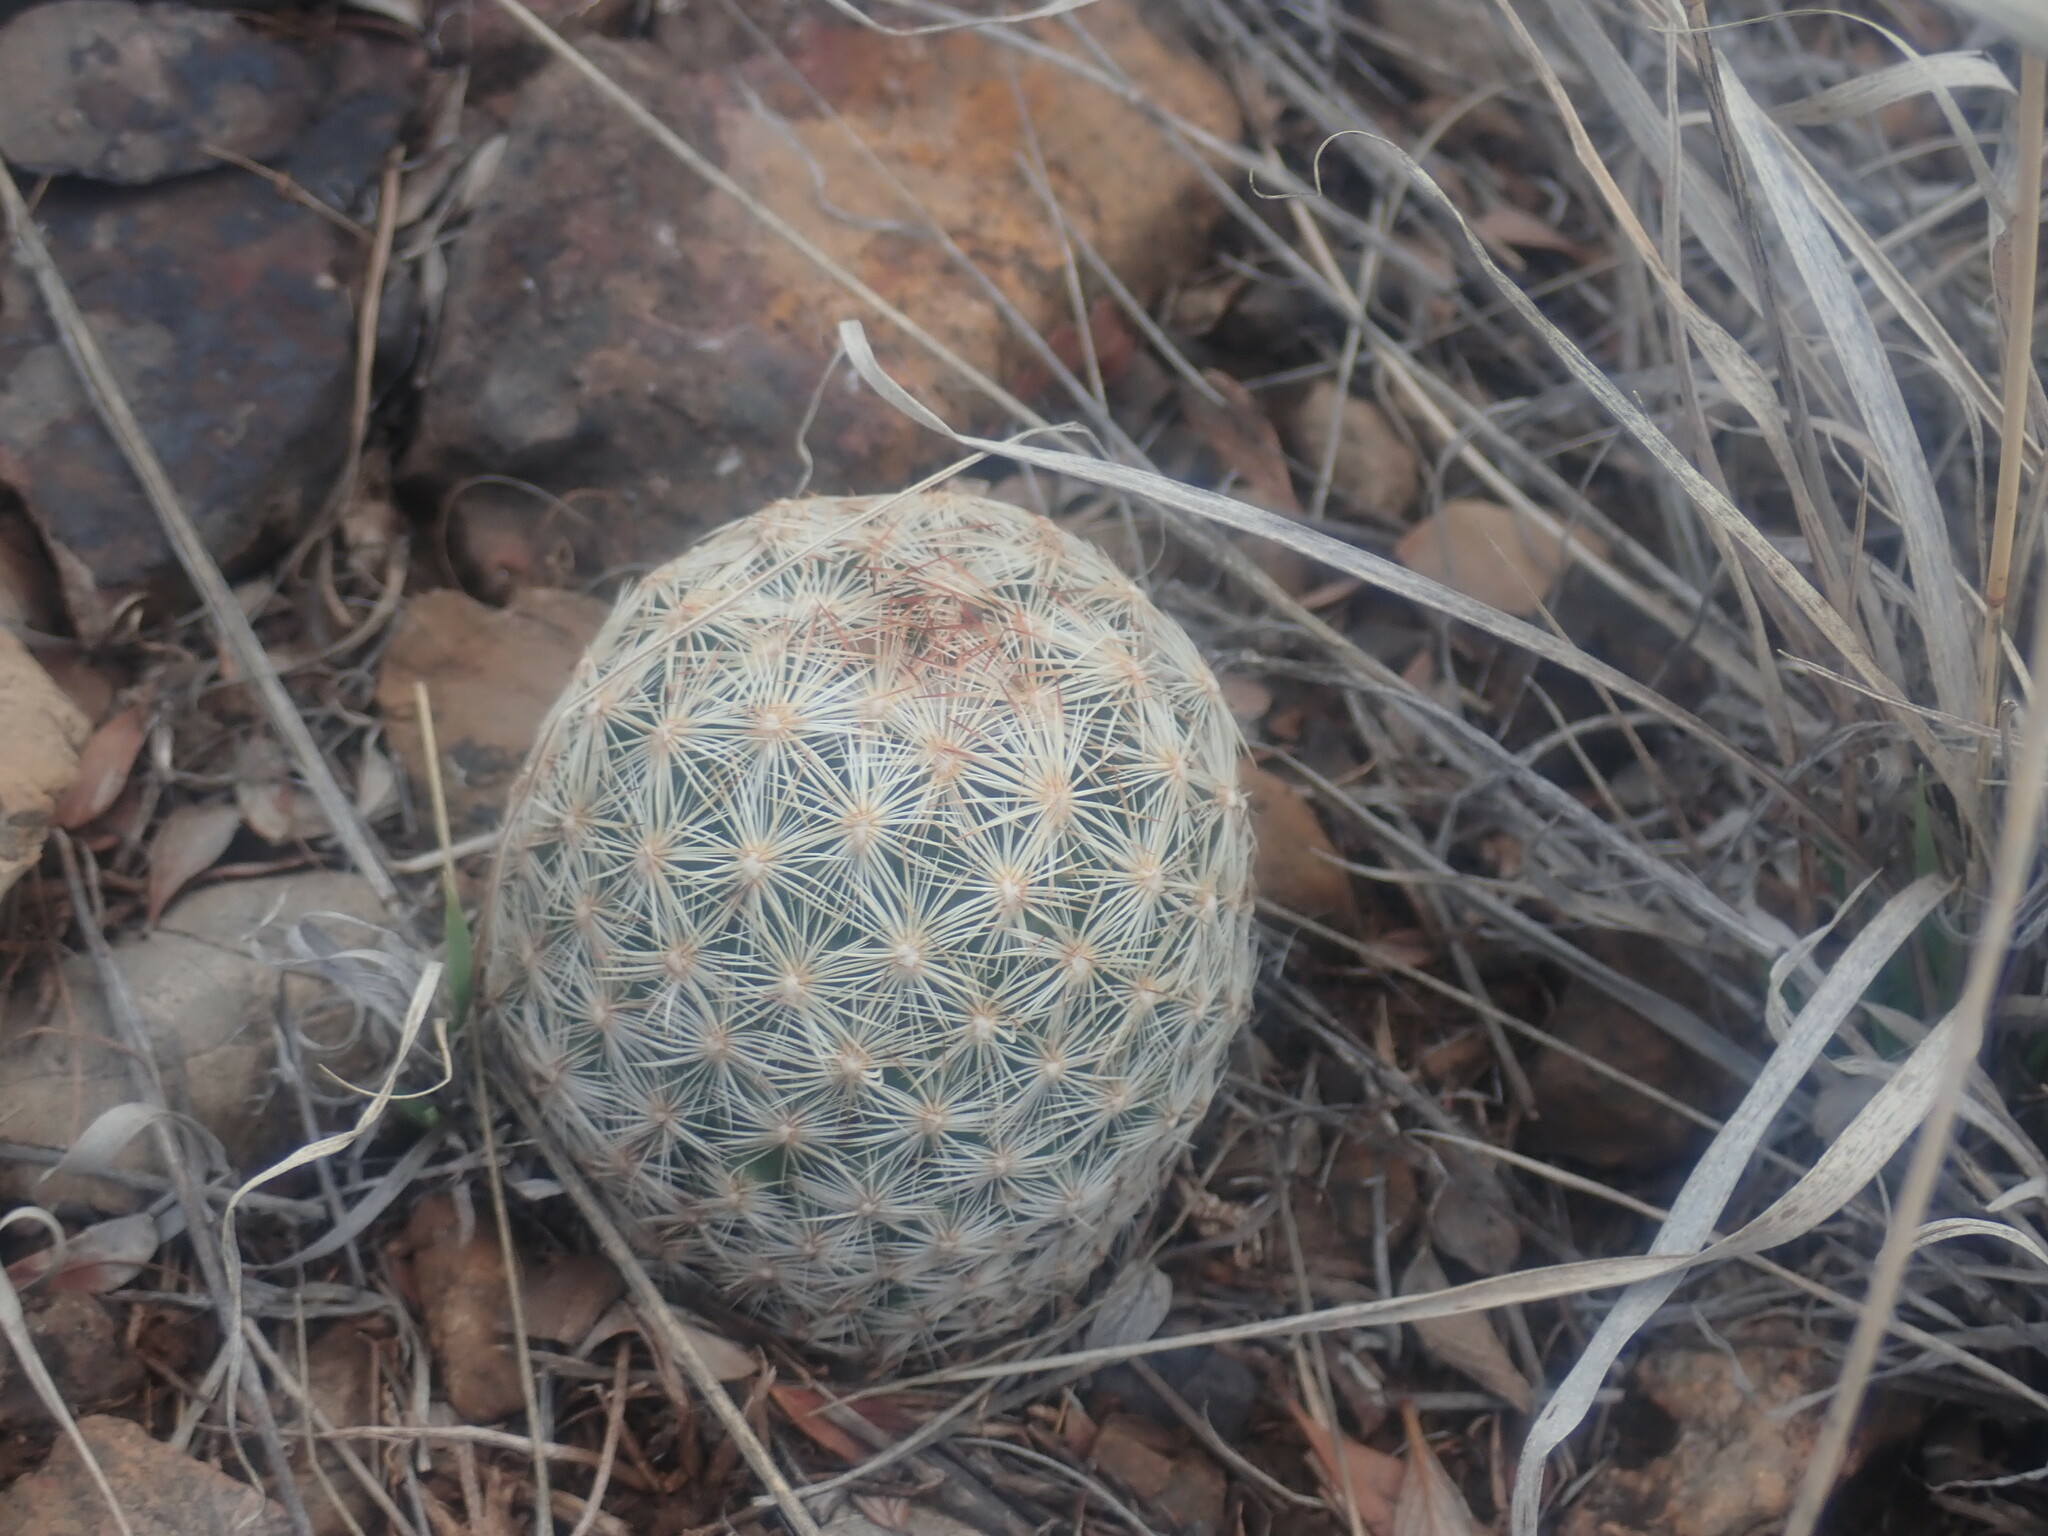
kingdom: Plantae
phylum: Tracheophyta
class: Magnoliopsida
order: Caryophyllales
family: Cactaceae
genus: Pelecyphora
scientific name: Pelecyphora vivipara
